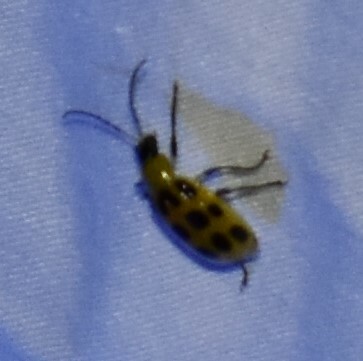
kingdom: Animalia
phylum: Arthropoda
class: Insecta
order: Coleoptera
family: Chrysomelidae
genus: Diabrotica
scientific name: Diabrotica undecimpunctata
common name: Spotted cucumber beetle
